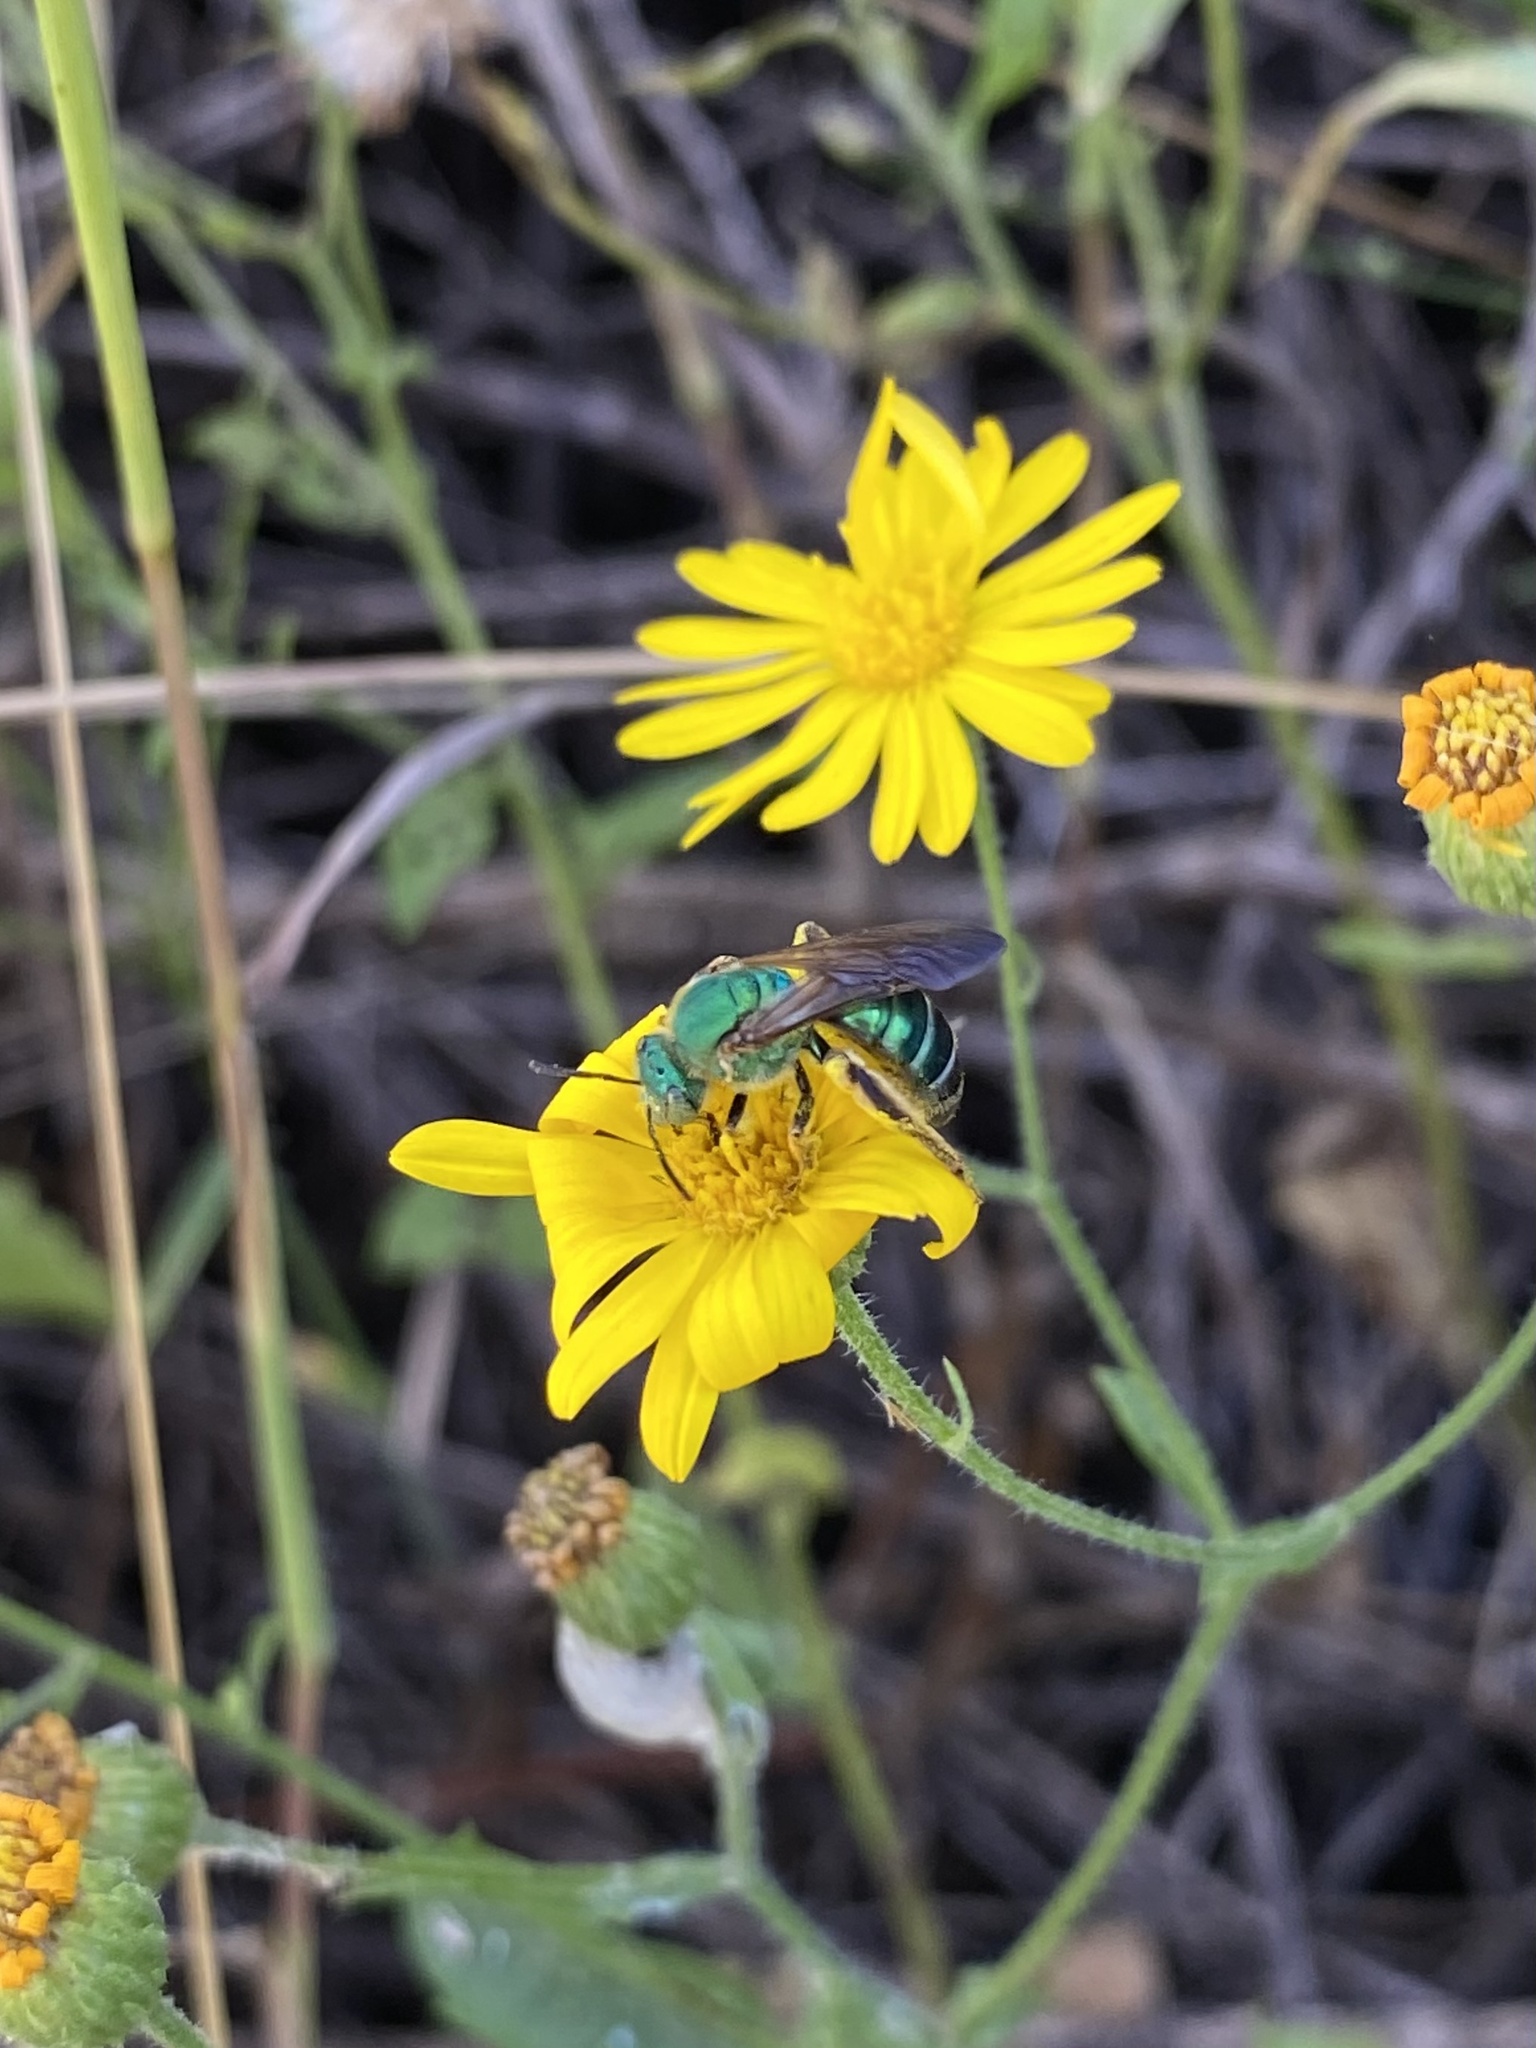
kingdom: Animalia
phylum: Arthropoda
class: Insecta
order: Hymenoptera
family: Halictidae
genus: Agapostemon
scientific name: Agapostemon splendens
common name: Brown-winged striped sweat bee
